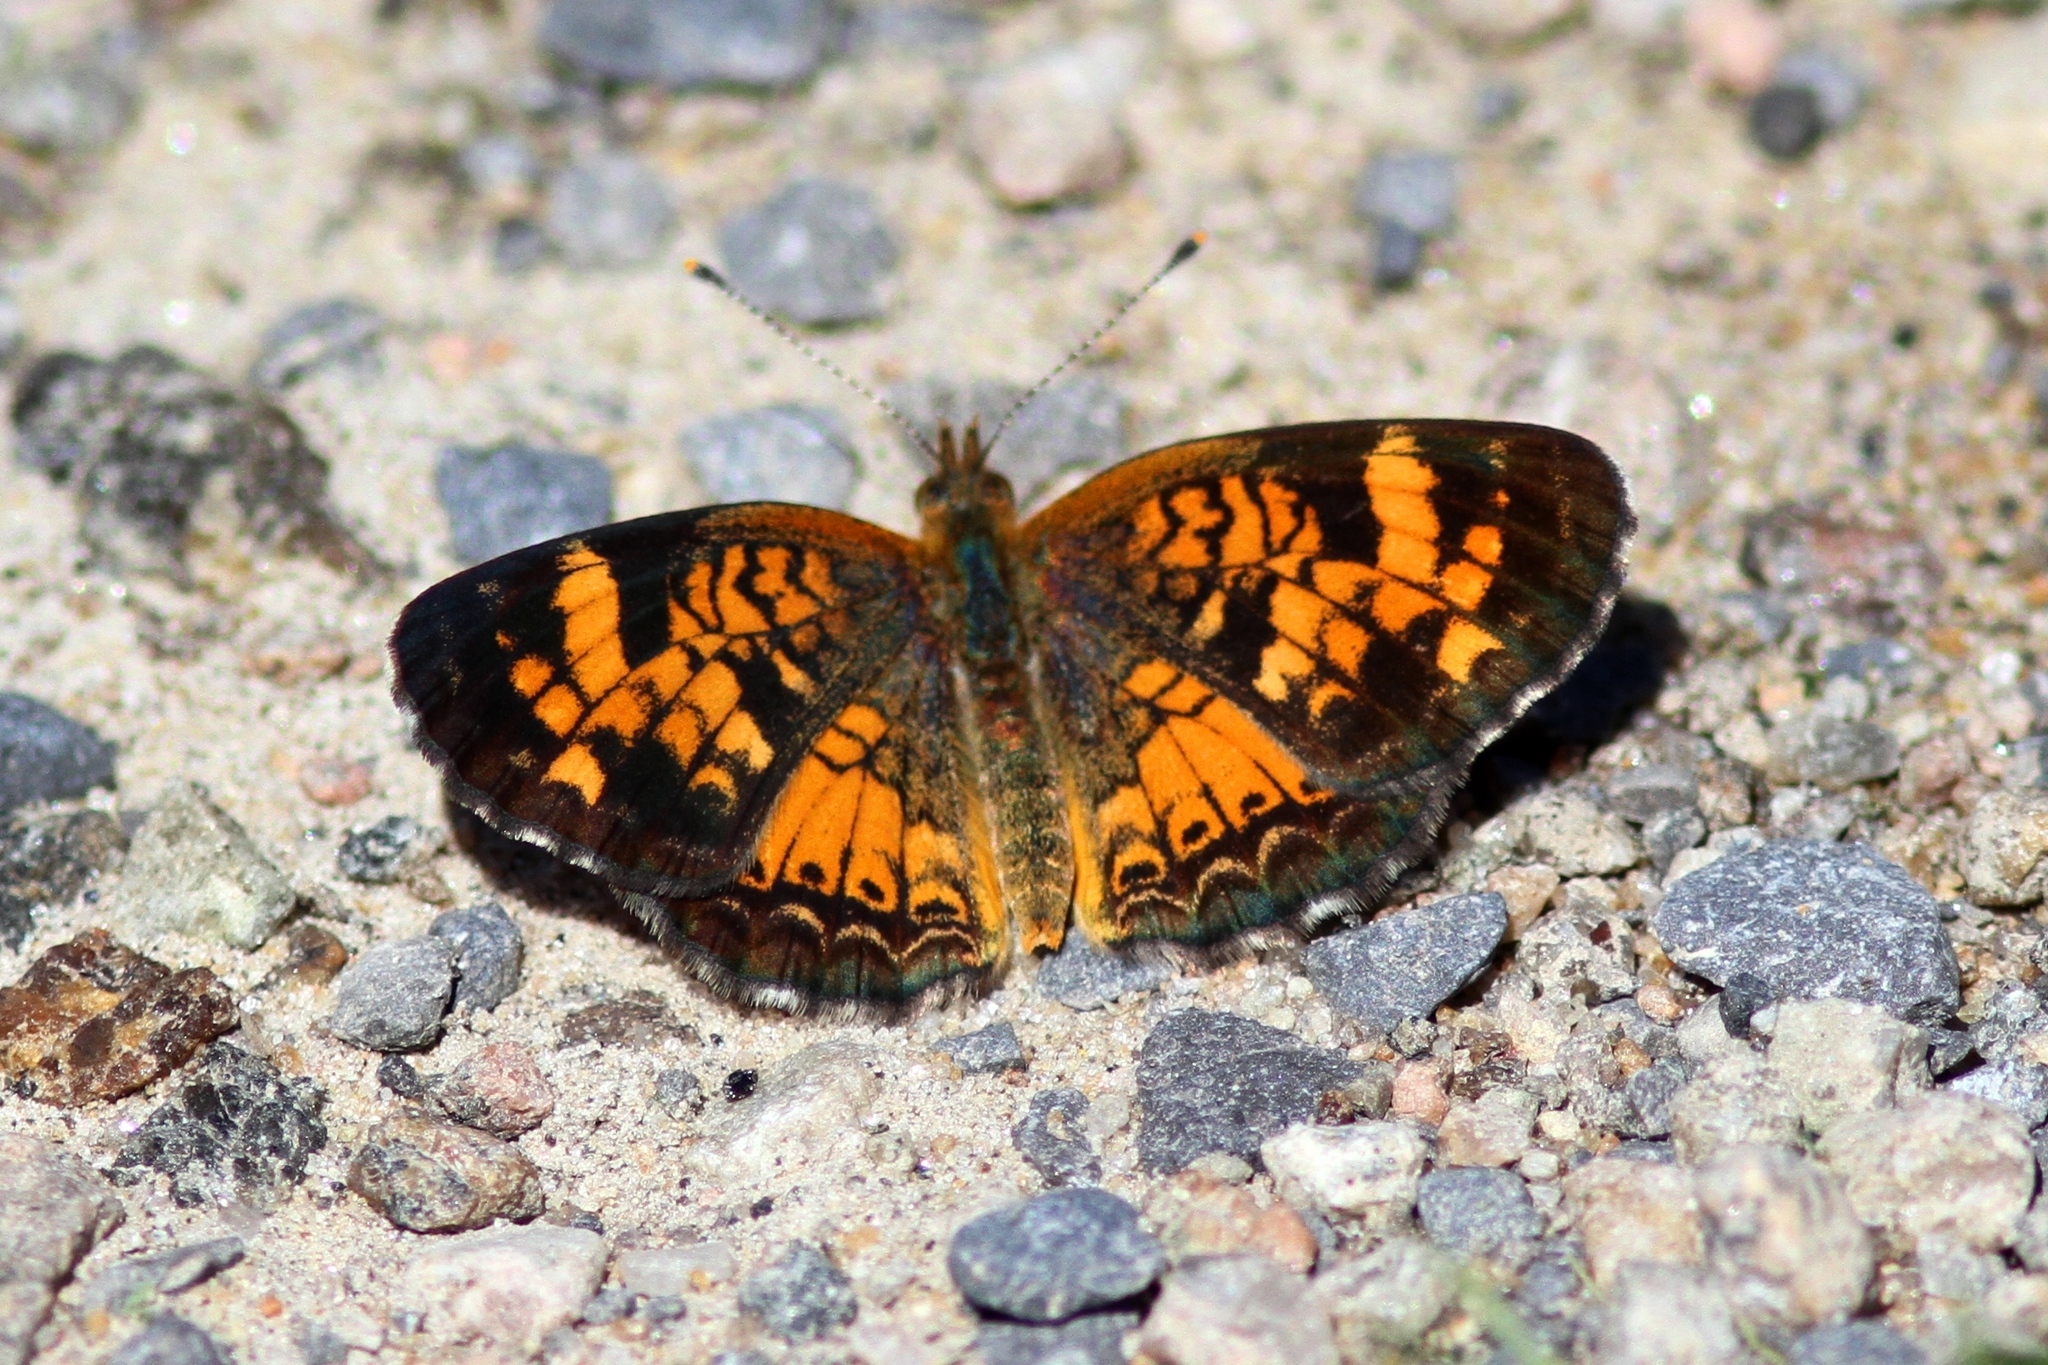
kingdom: Animalia
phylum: Arthropoda
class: Insecta
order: Lepidoptera
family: Nymphalidae
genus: Phyciodes
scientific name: Phyciodes tharos
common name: Pearl crescent
